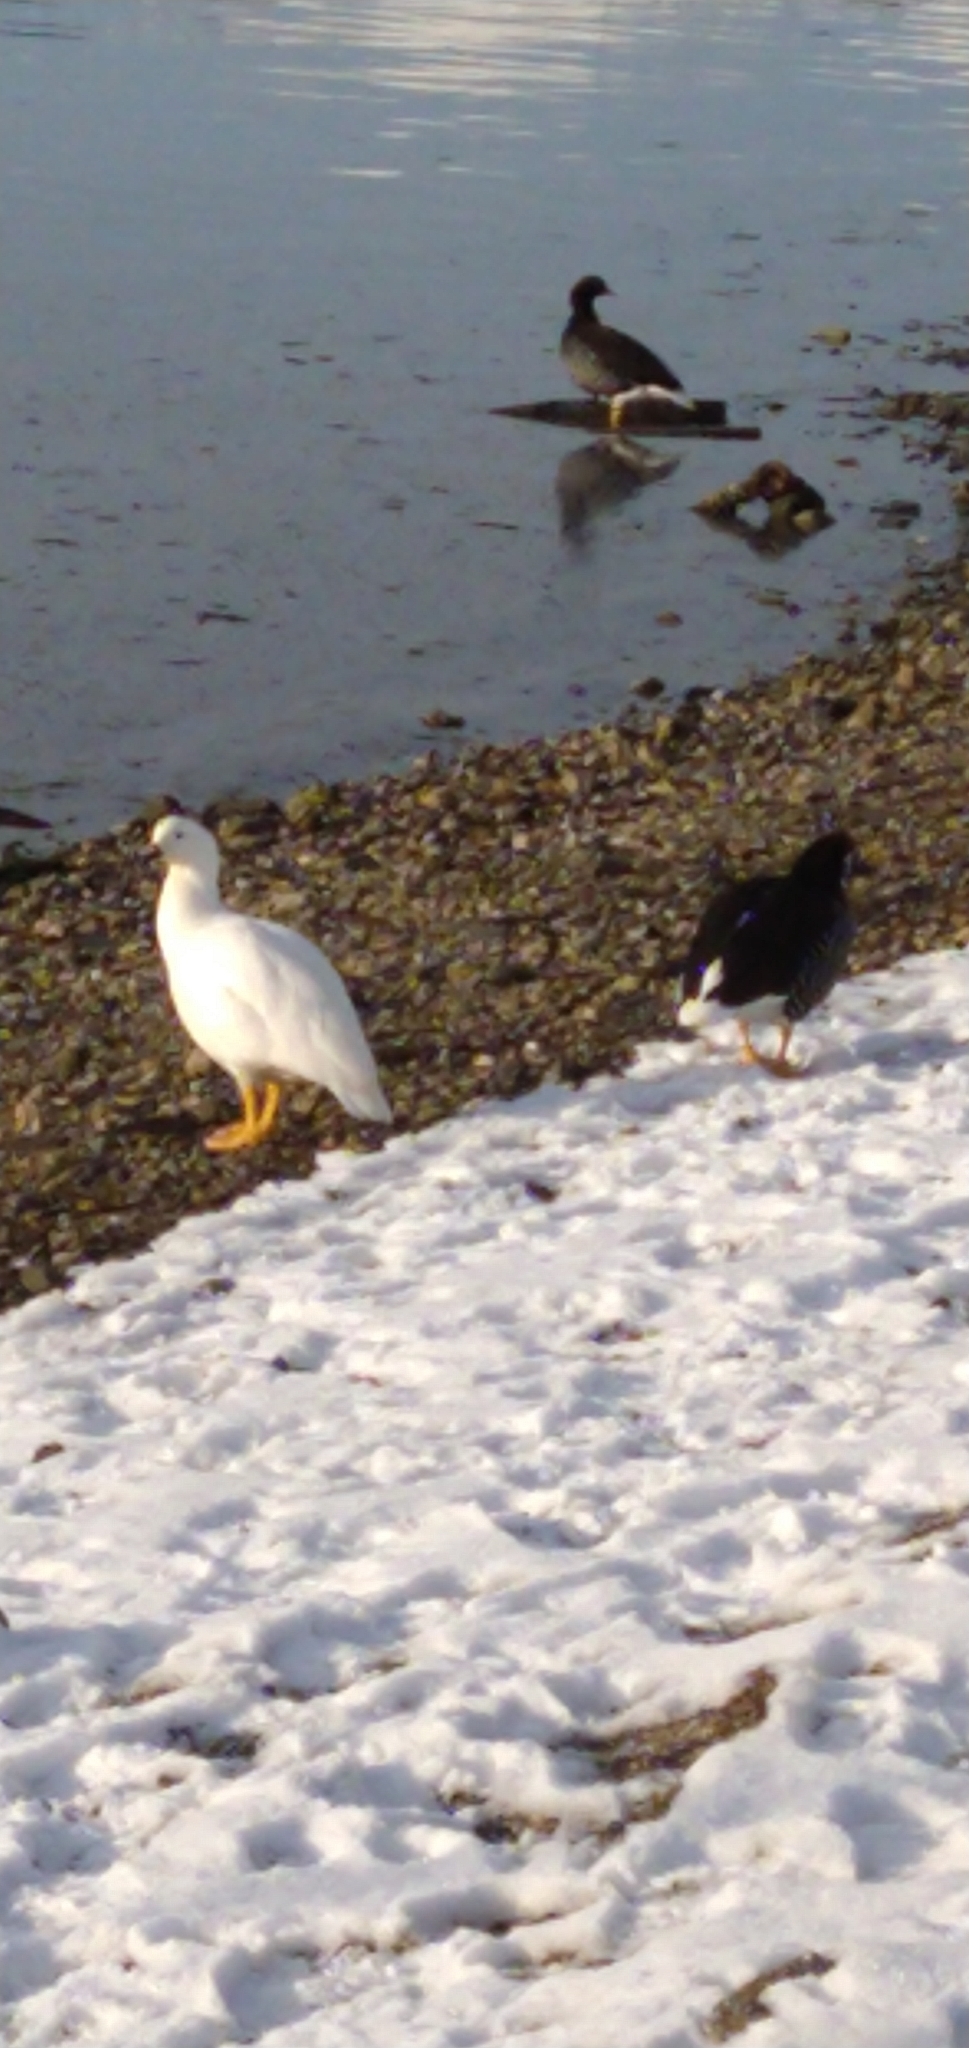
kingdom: Animalia
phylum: Chordata
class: Aves
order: Anseriformes
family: Anatidae
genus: Chloephaga
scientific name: Chloephaga hybrida
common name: Kelp goose
